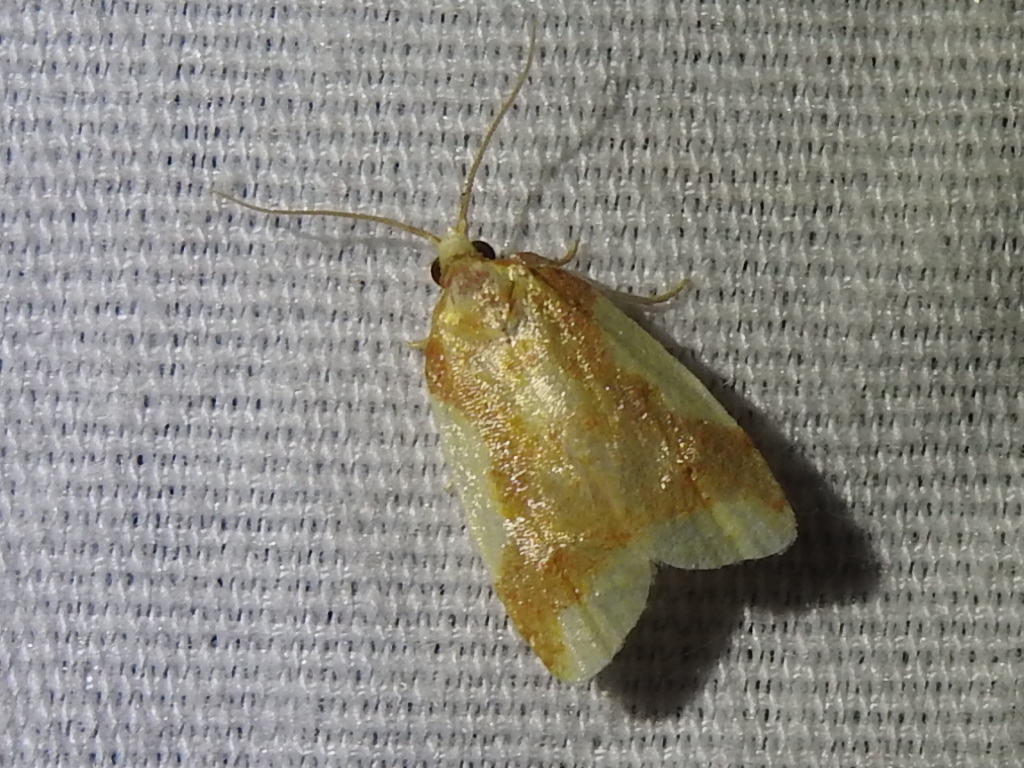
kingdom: Animalia
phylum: Arthropoda
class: Insecta
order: Lepidoptera
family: Tortricidae
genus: Sparganothis
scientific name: Sparganothis pulcherrimana
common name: Beautiful sparganothis
